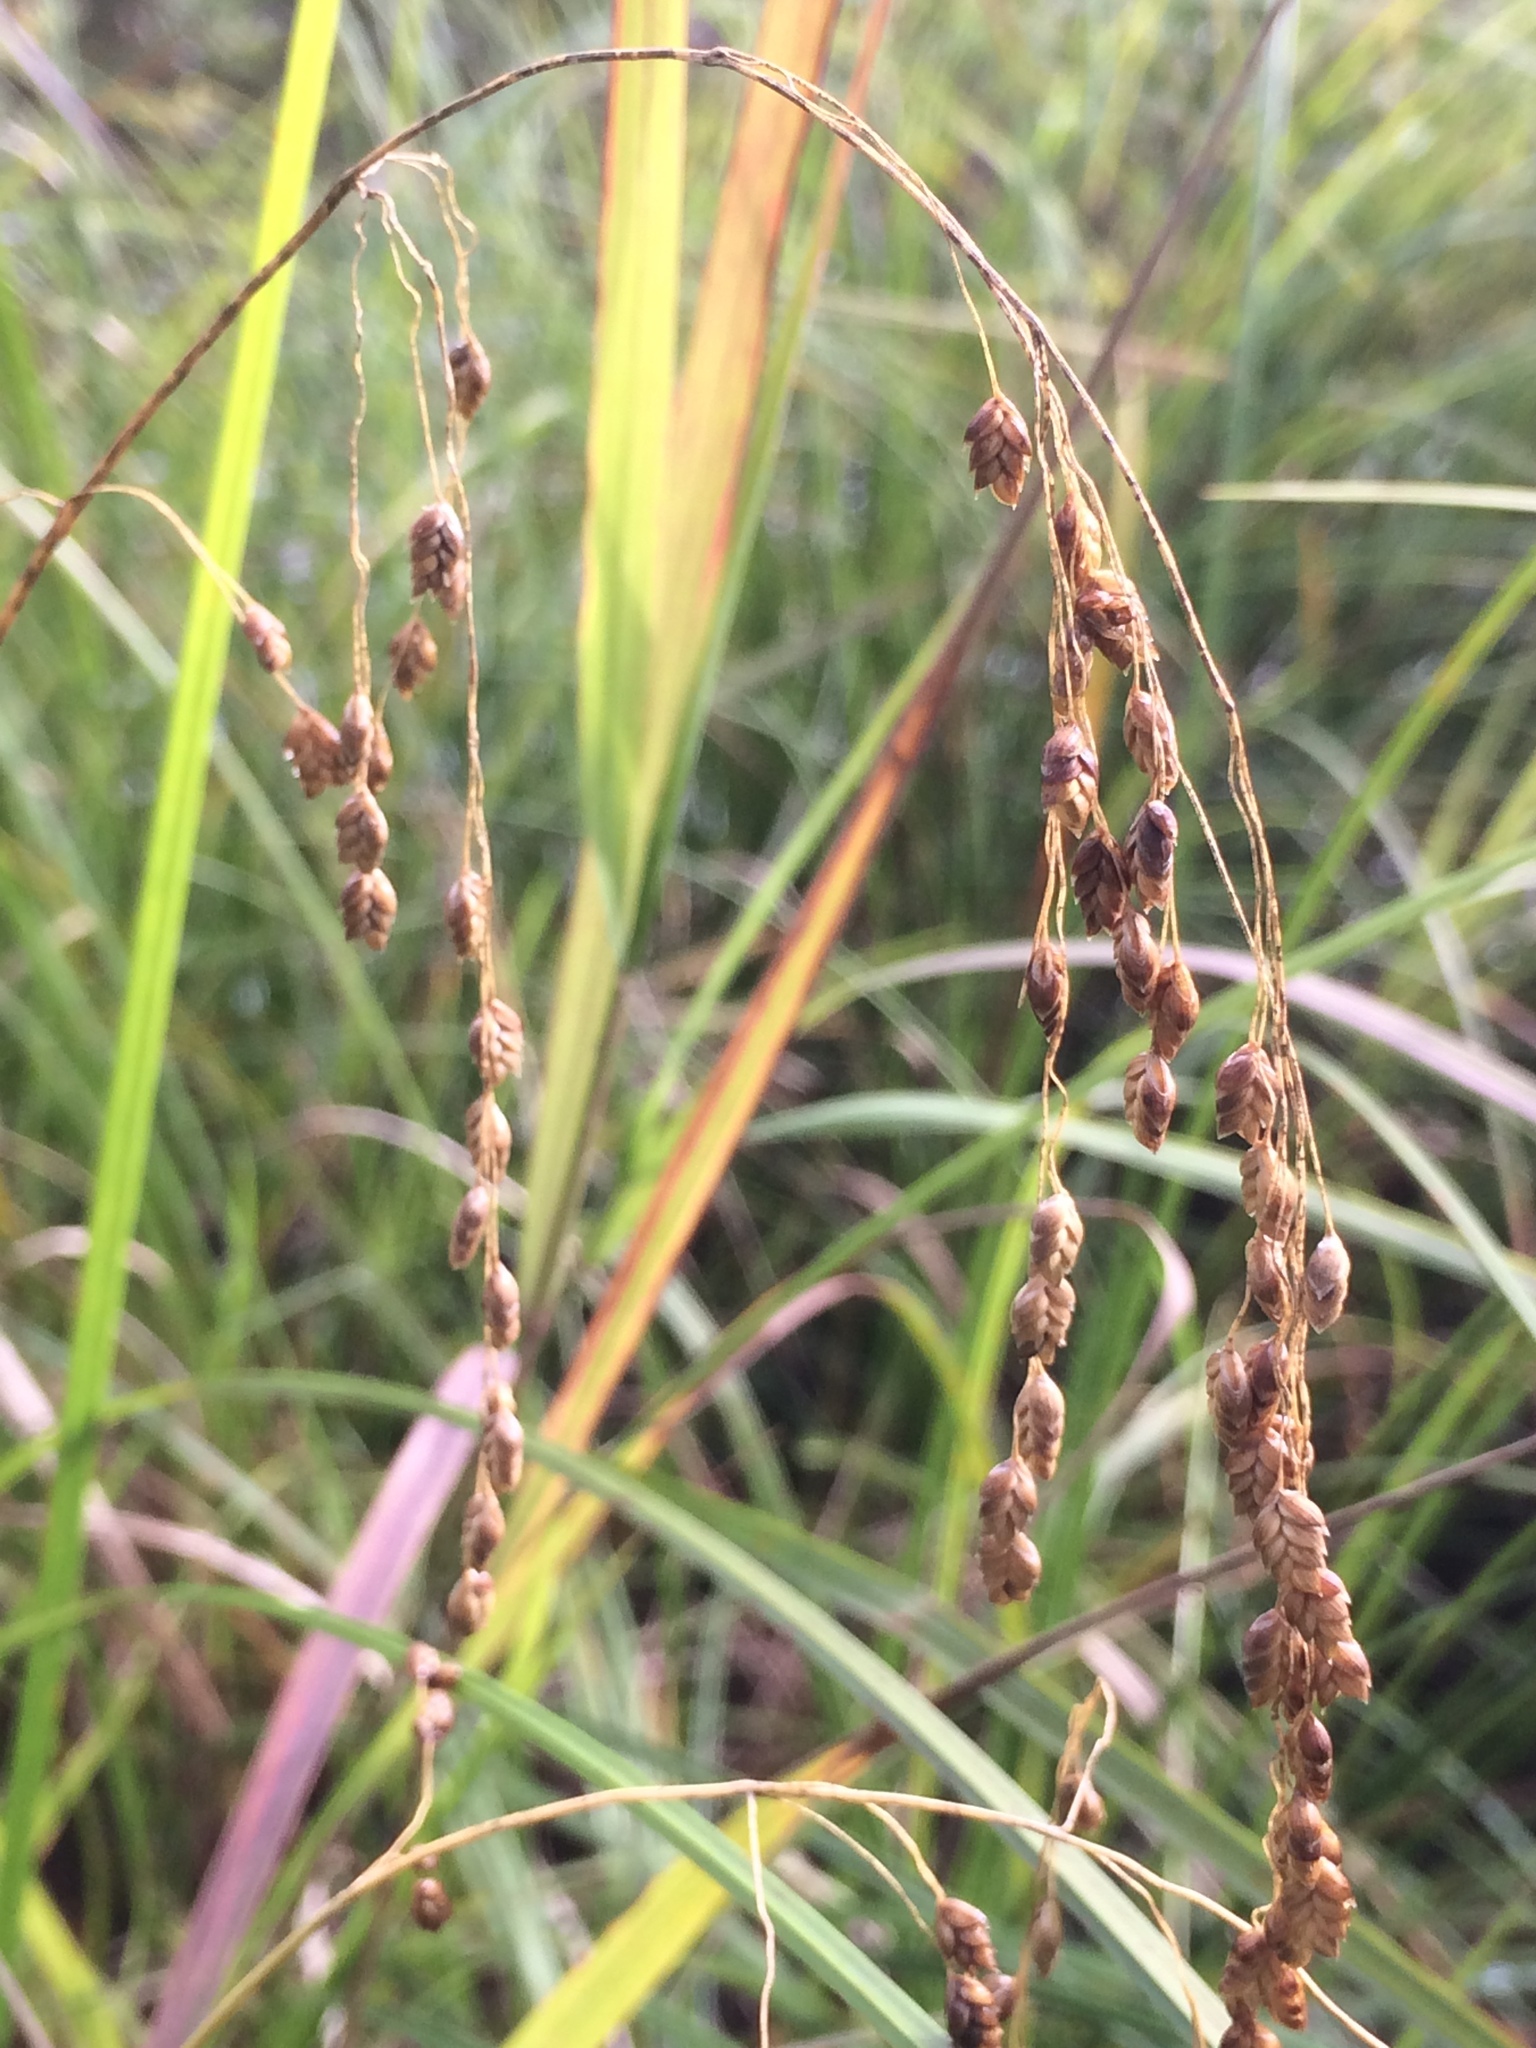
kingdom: Plantae
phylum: Tracheophyta
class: Liliopsida
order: Poales
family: Poaceae
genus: Glyceria
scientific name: Glyceria canadensis
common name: Canada mannagrass
